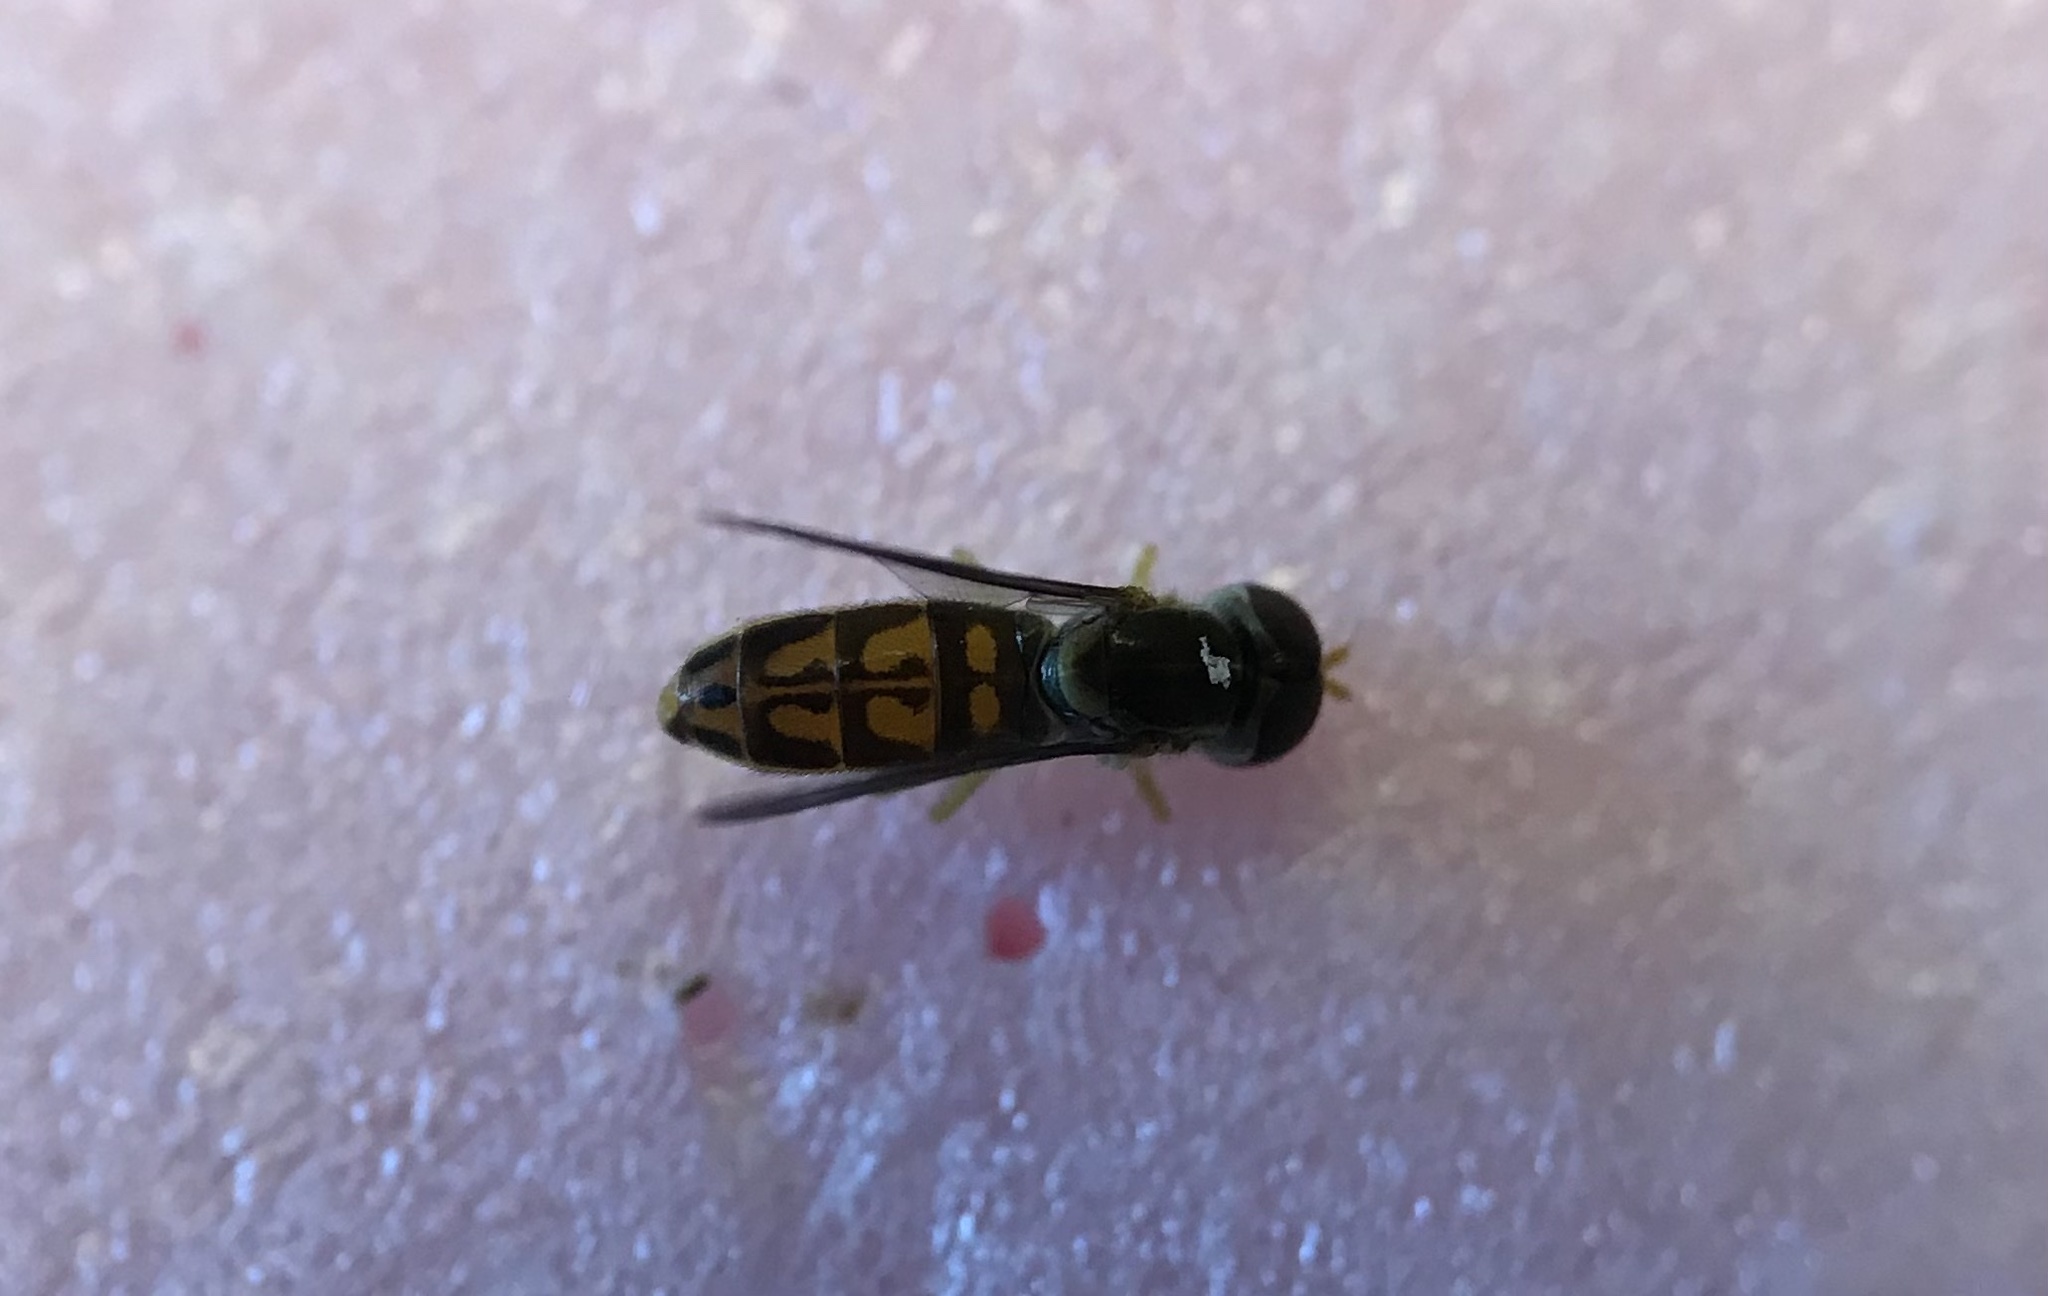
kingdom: Animalia
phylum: Arthropoda
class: Insecta
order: Diptera
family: Syrphidae
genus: Toxomerus
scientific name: Toxomerus marginatus
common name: Syrphid fly
